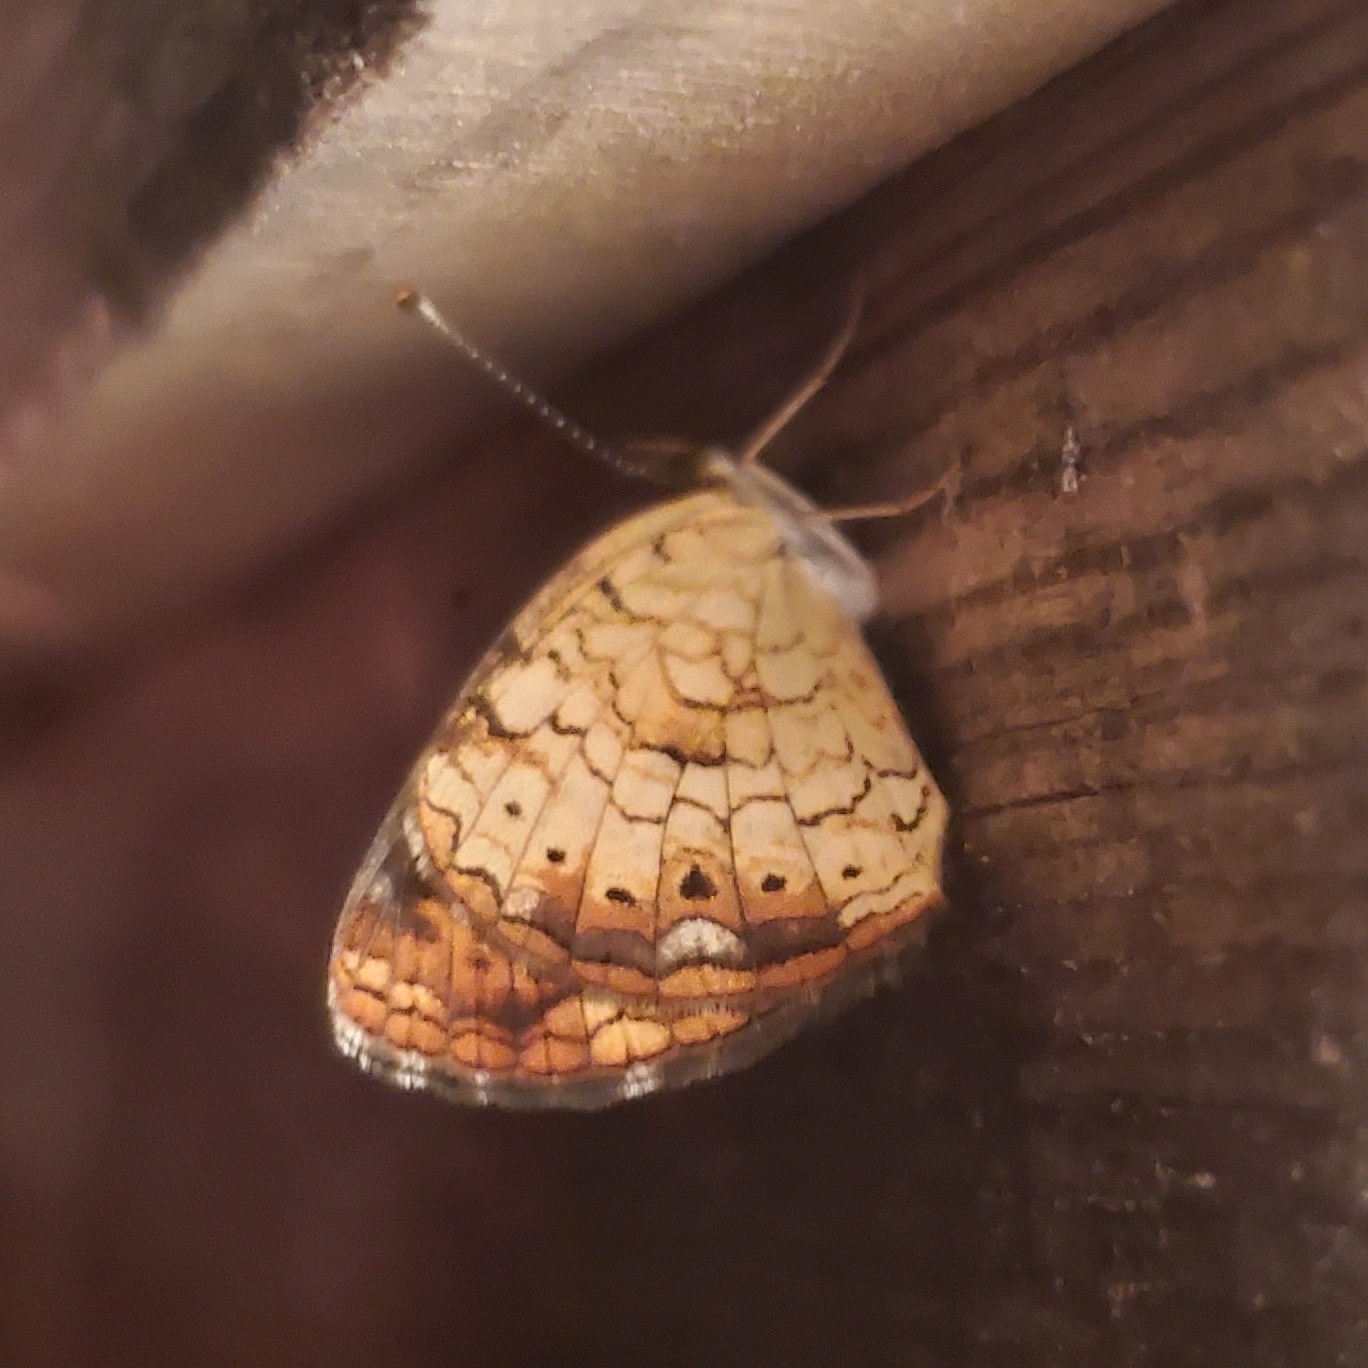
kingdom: Animalia
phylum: Arthropoda
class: Insecta
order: Lepidoptera
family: Nymphalidae
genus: Phyciodes
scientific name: Phyciodes tharos
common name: Pearl crescent
